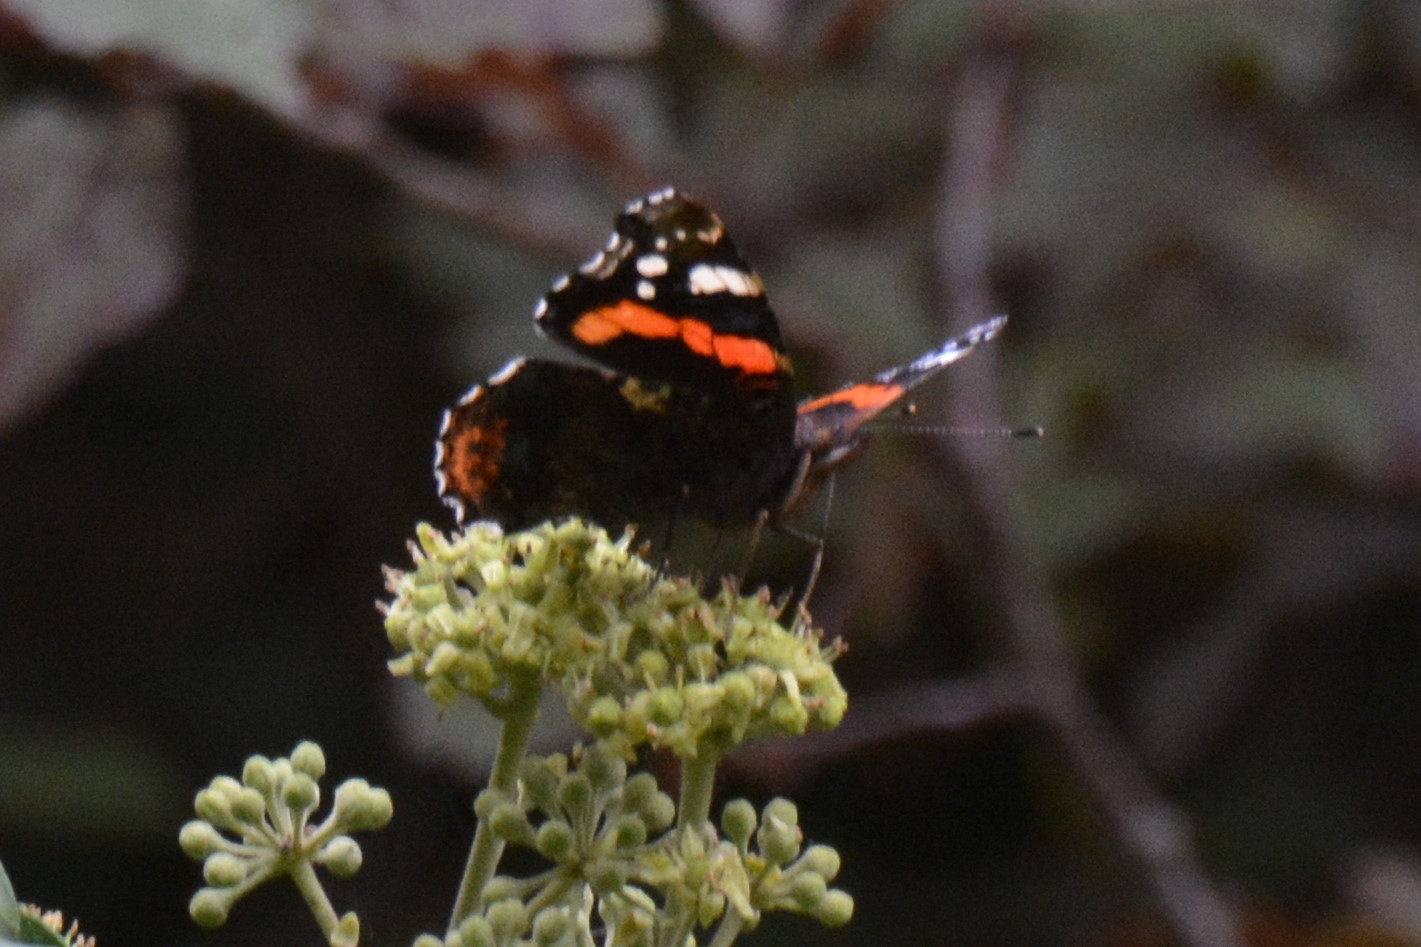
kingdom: Animalia
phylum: Arthropoda
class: Insecta
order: Lepidoptera
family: Nymphalidae
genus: Vanessa
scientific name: Vanessa atalanta
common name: Red admiral
